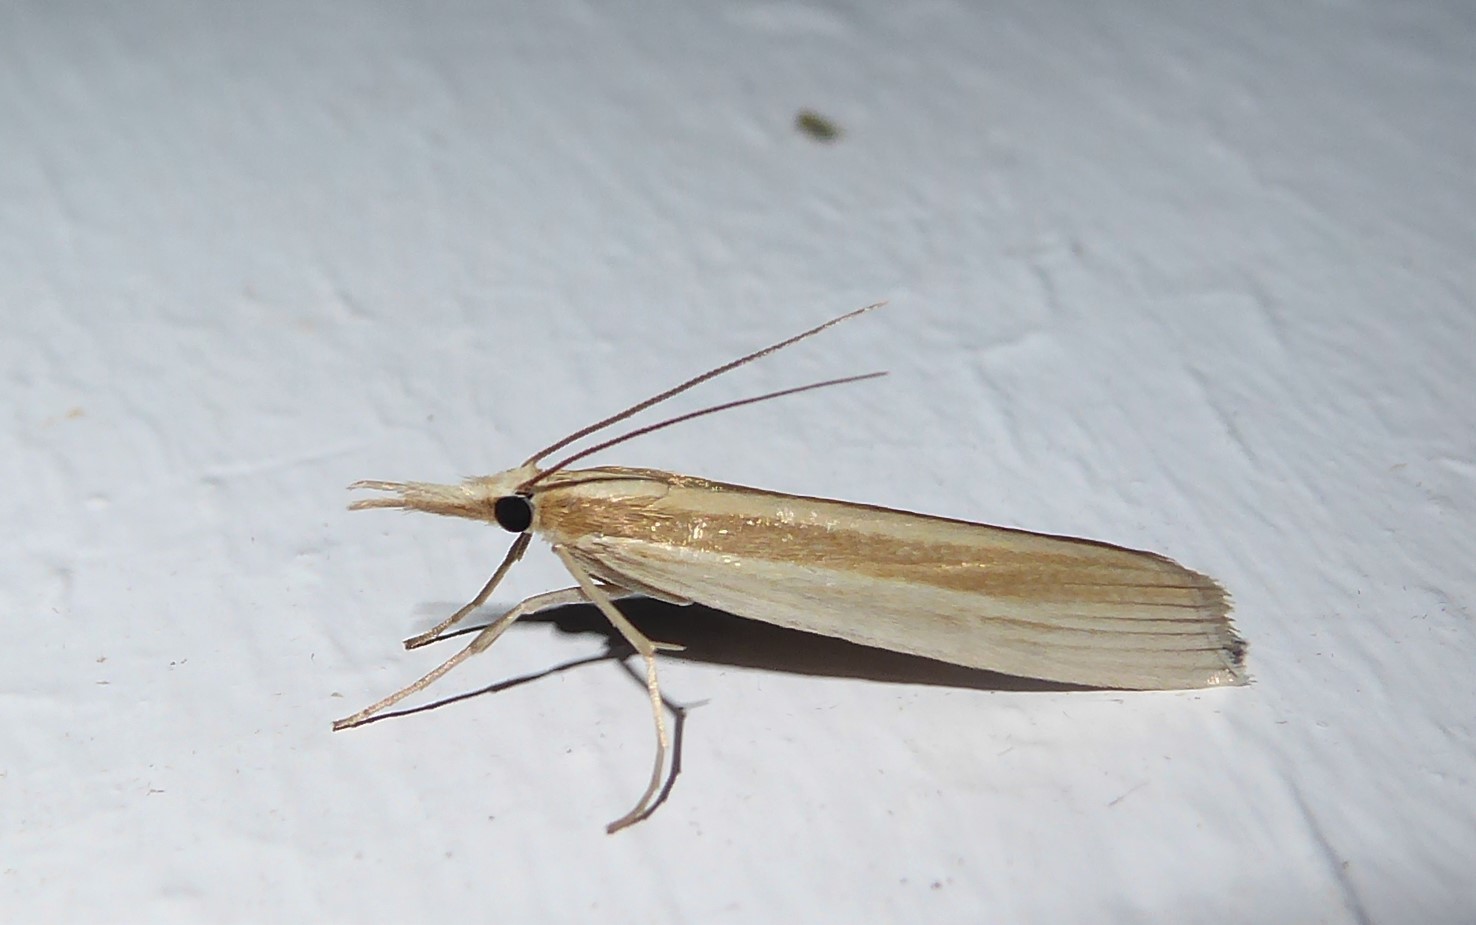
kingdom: Animalia
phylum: Arthropoda
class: Insecta
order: Lepidoptera
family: Crambidae
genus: Orocrambus
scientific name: Orocrambus angustipennis
